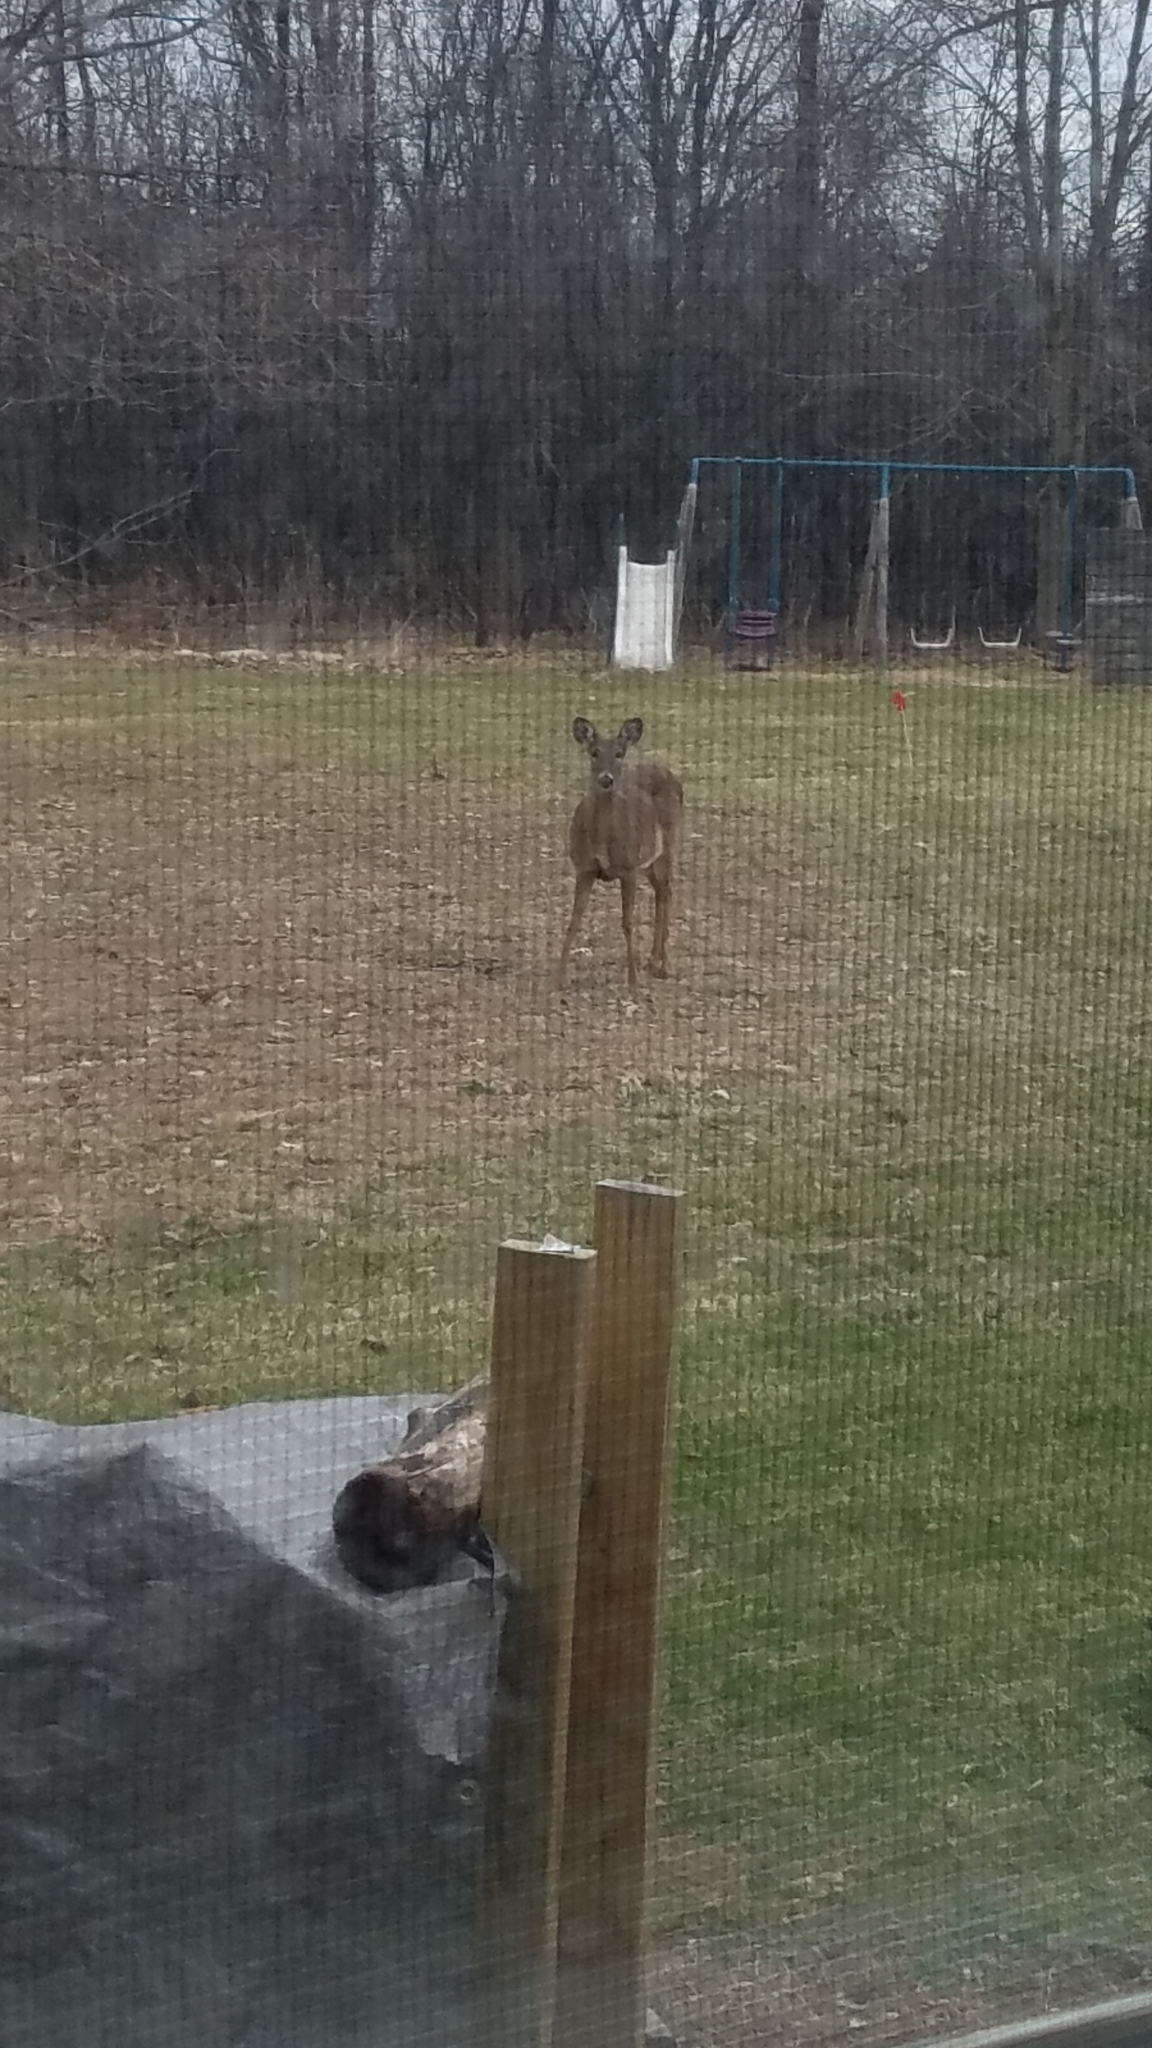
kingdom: Animalia
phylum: Chordata
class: Mammalia
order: Artiodactyla
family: Cervidae
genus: Odocoileus
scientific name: Odocoileus virginianus
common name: White-tailed deer
